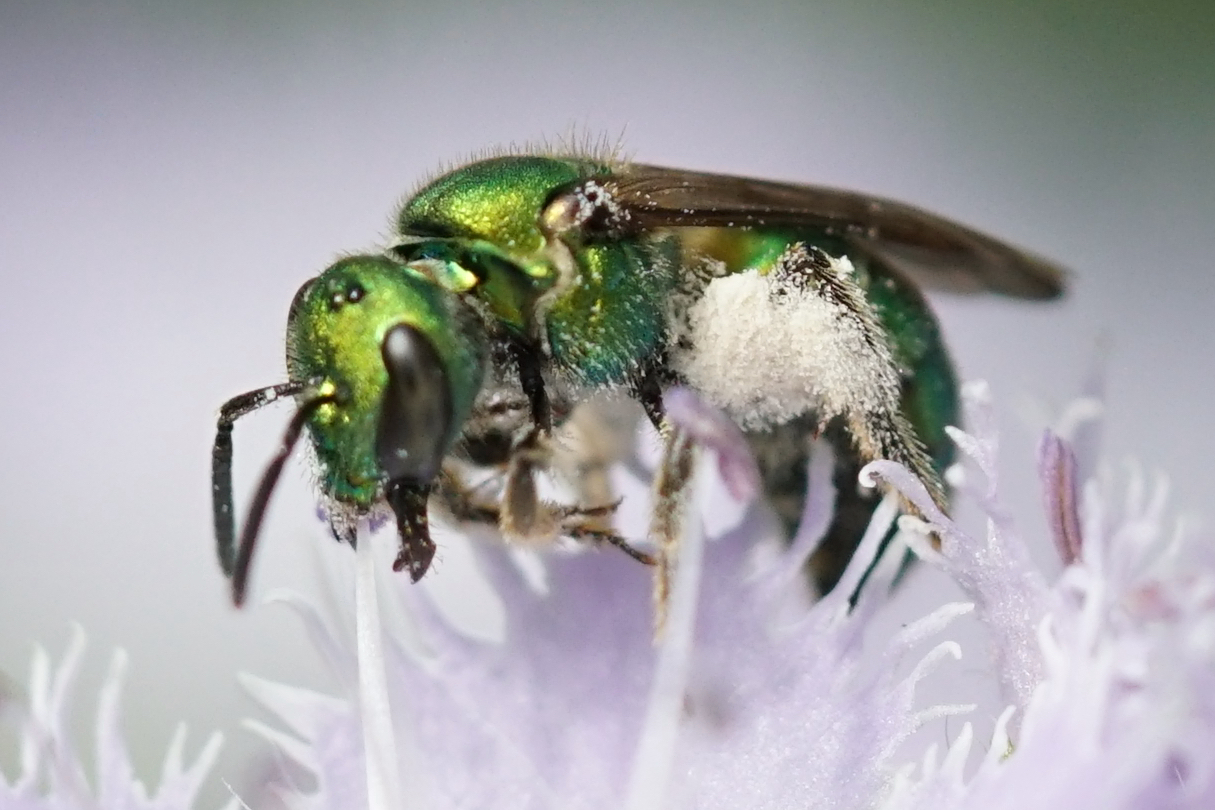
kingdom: Animalia
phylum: Arthropoda
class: Insecta
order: Hymenoptera
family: Halictidae
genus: Augochlora
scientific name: Augochlora pura
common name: Pure green sweat bee
